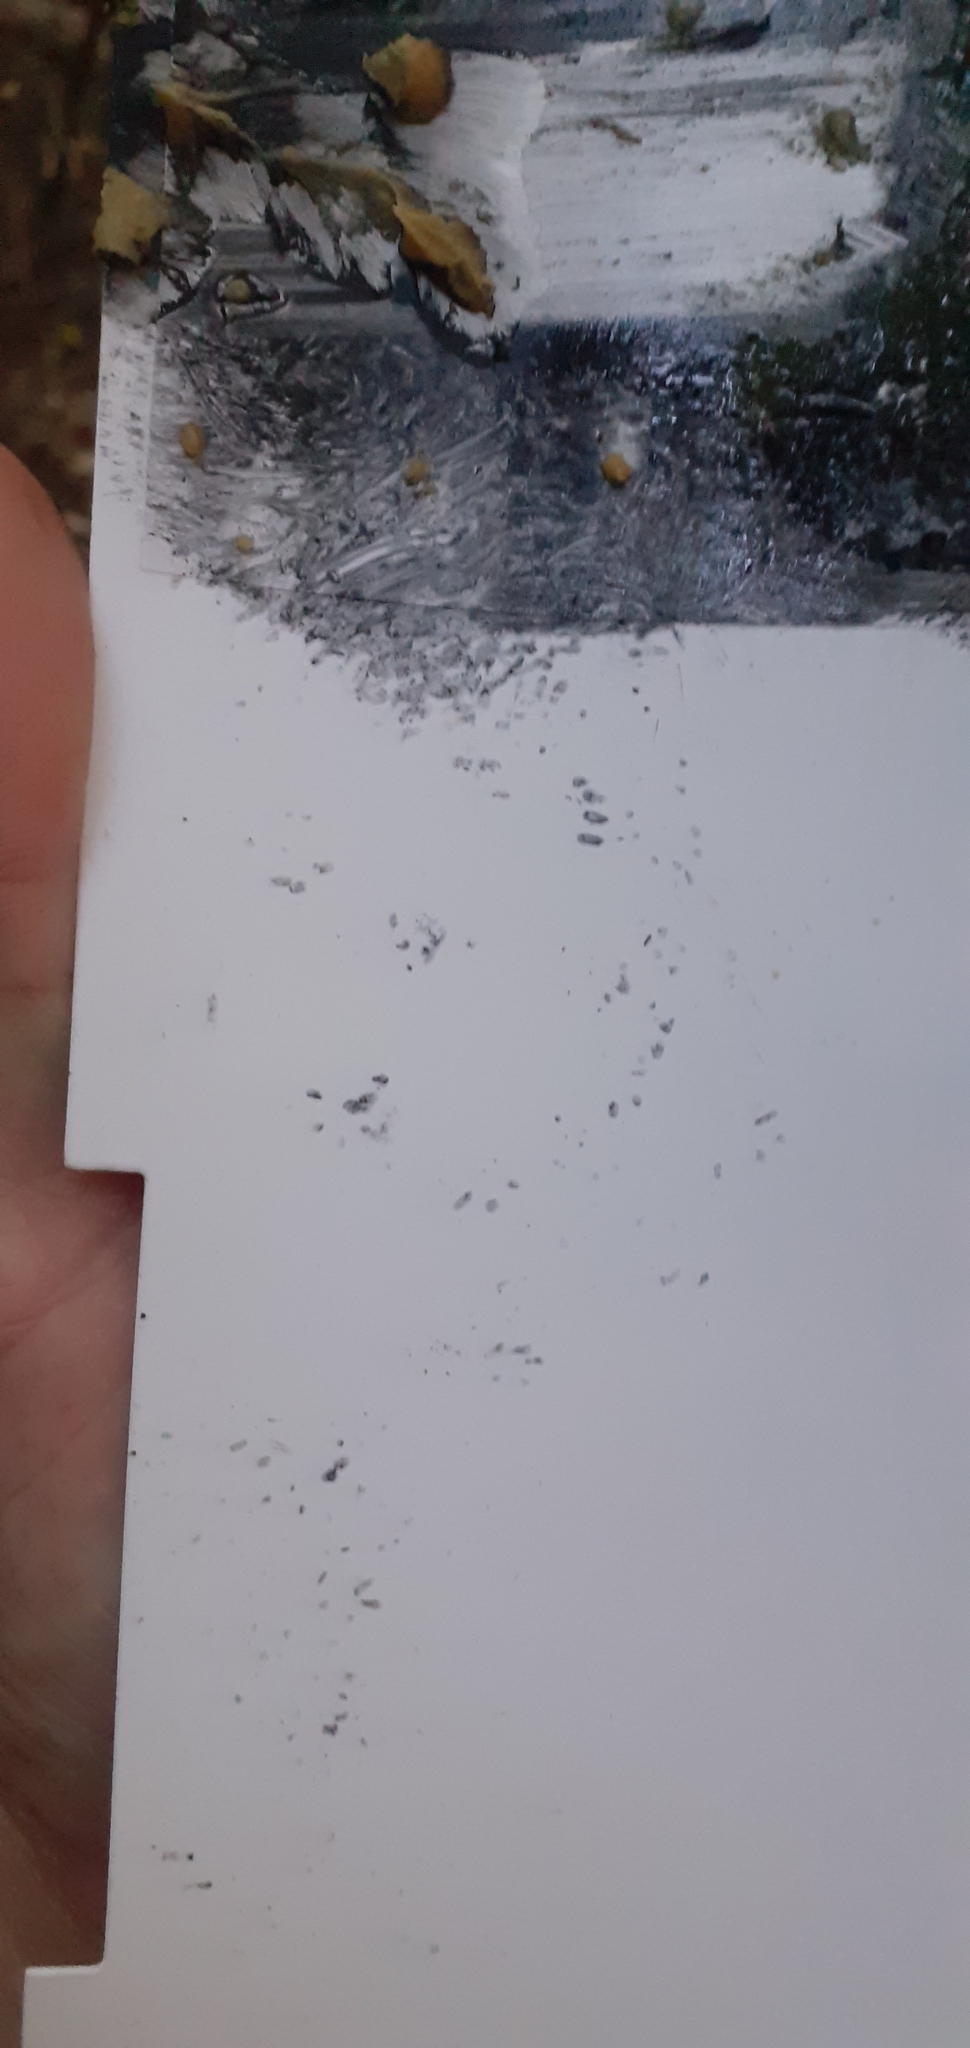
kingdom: Animalia
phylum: Chordata
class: Mammalia
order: Rodentia
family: Muridae
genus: Mus
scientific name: Mus musculus
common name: House mouse
